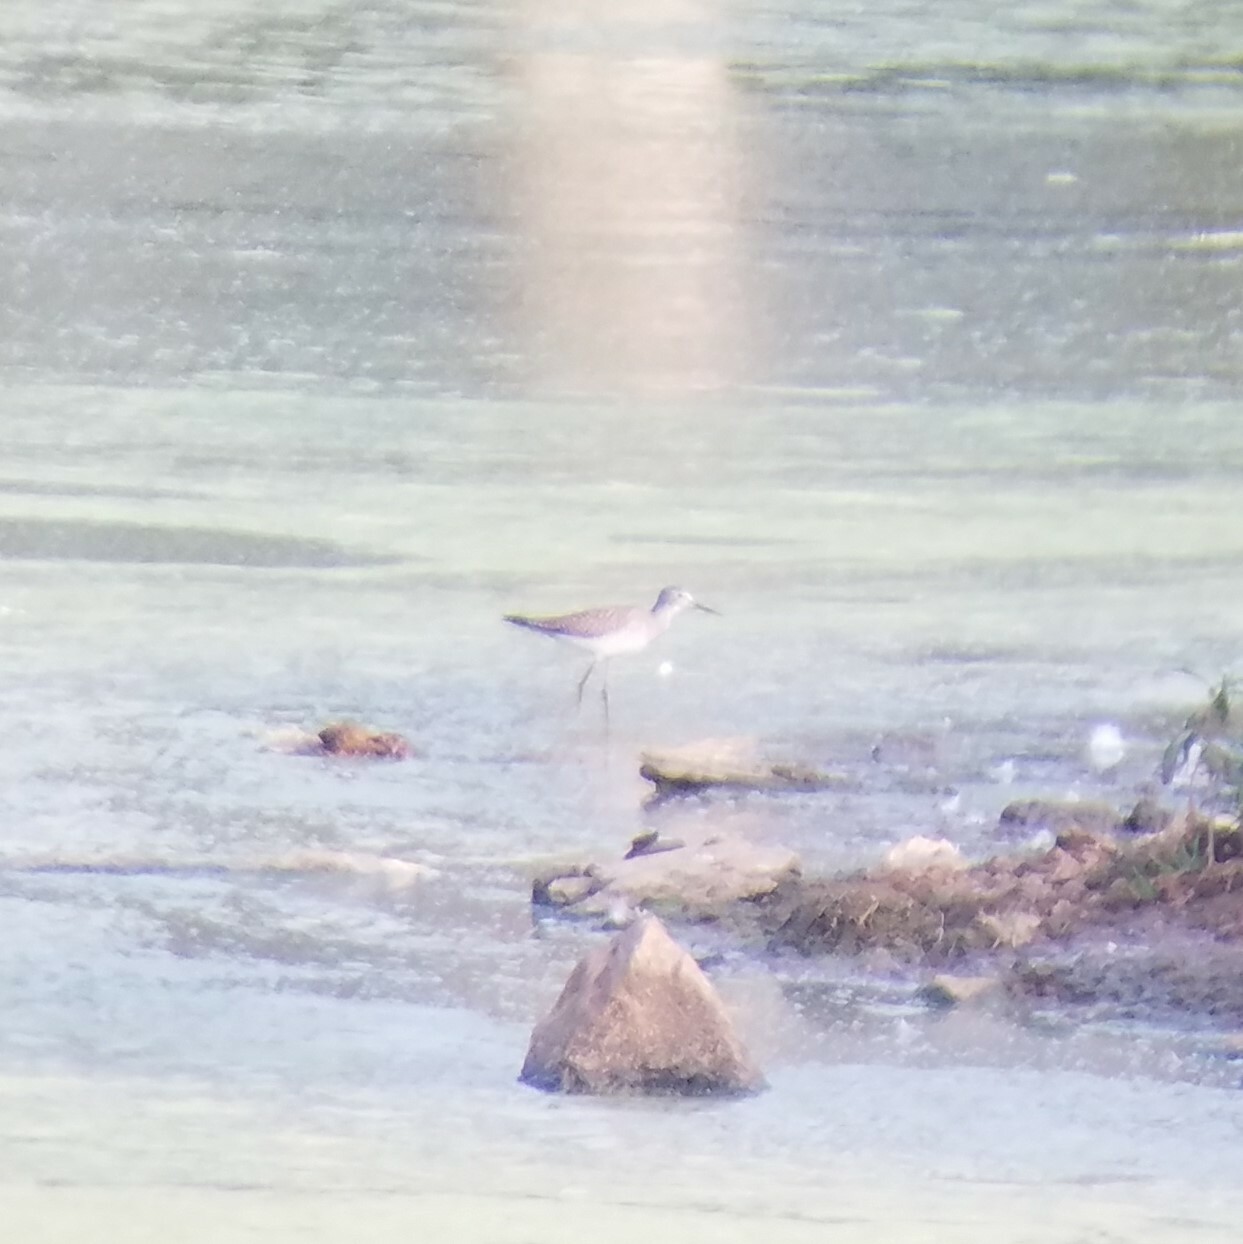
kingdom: Animalia
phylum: Chordata
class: Aves
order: Charadriiformes
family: Scolopacidae
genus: Tringa
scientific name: Tringa flavipes
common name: Lesser yellowlegs
